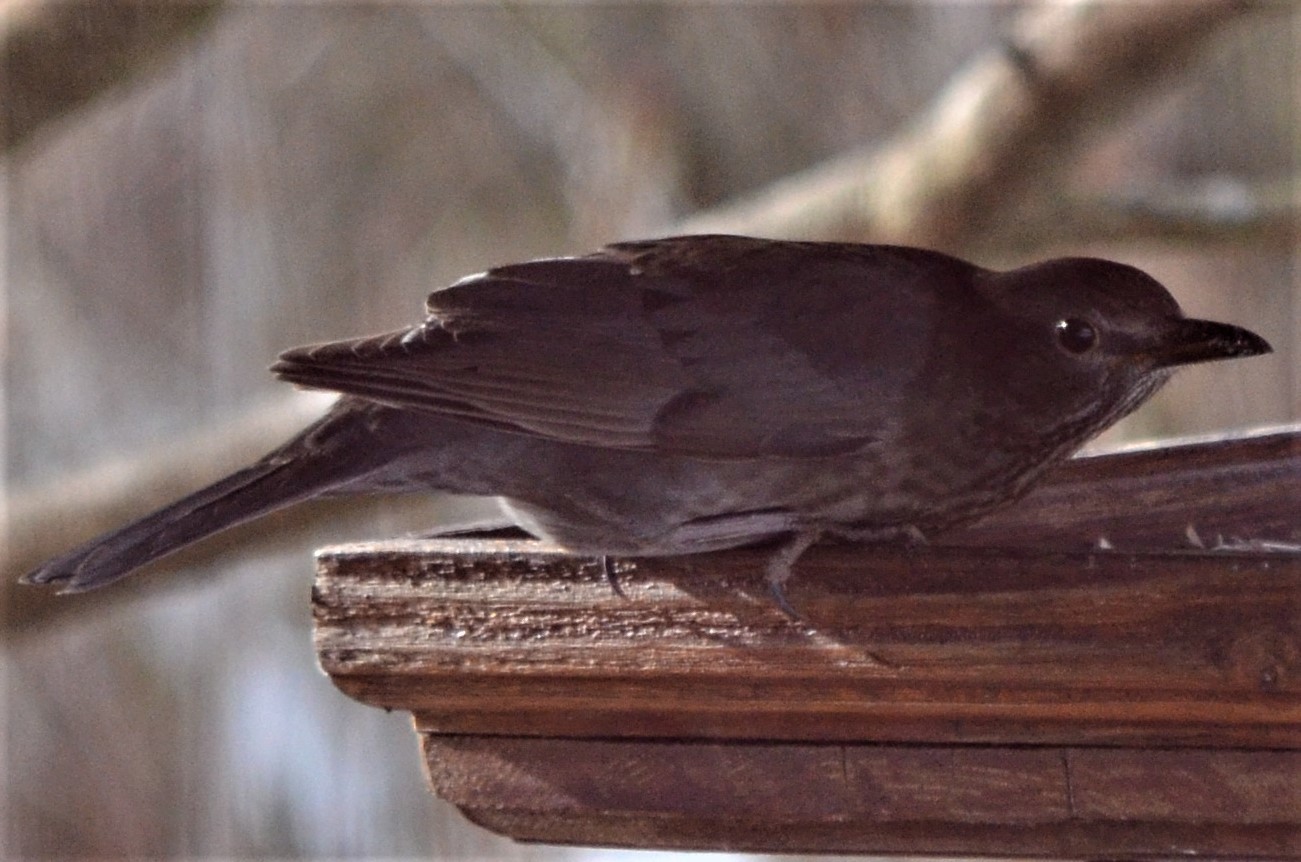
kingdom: Animalia
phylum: Chordata
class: Aves
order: Passeriformes
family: Turdidae
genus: Turdus
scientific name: Turdus merula
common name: Common blackbird
